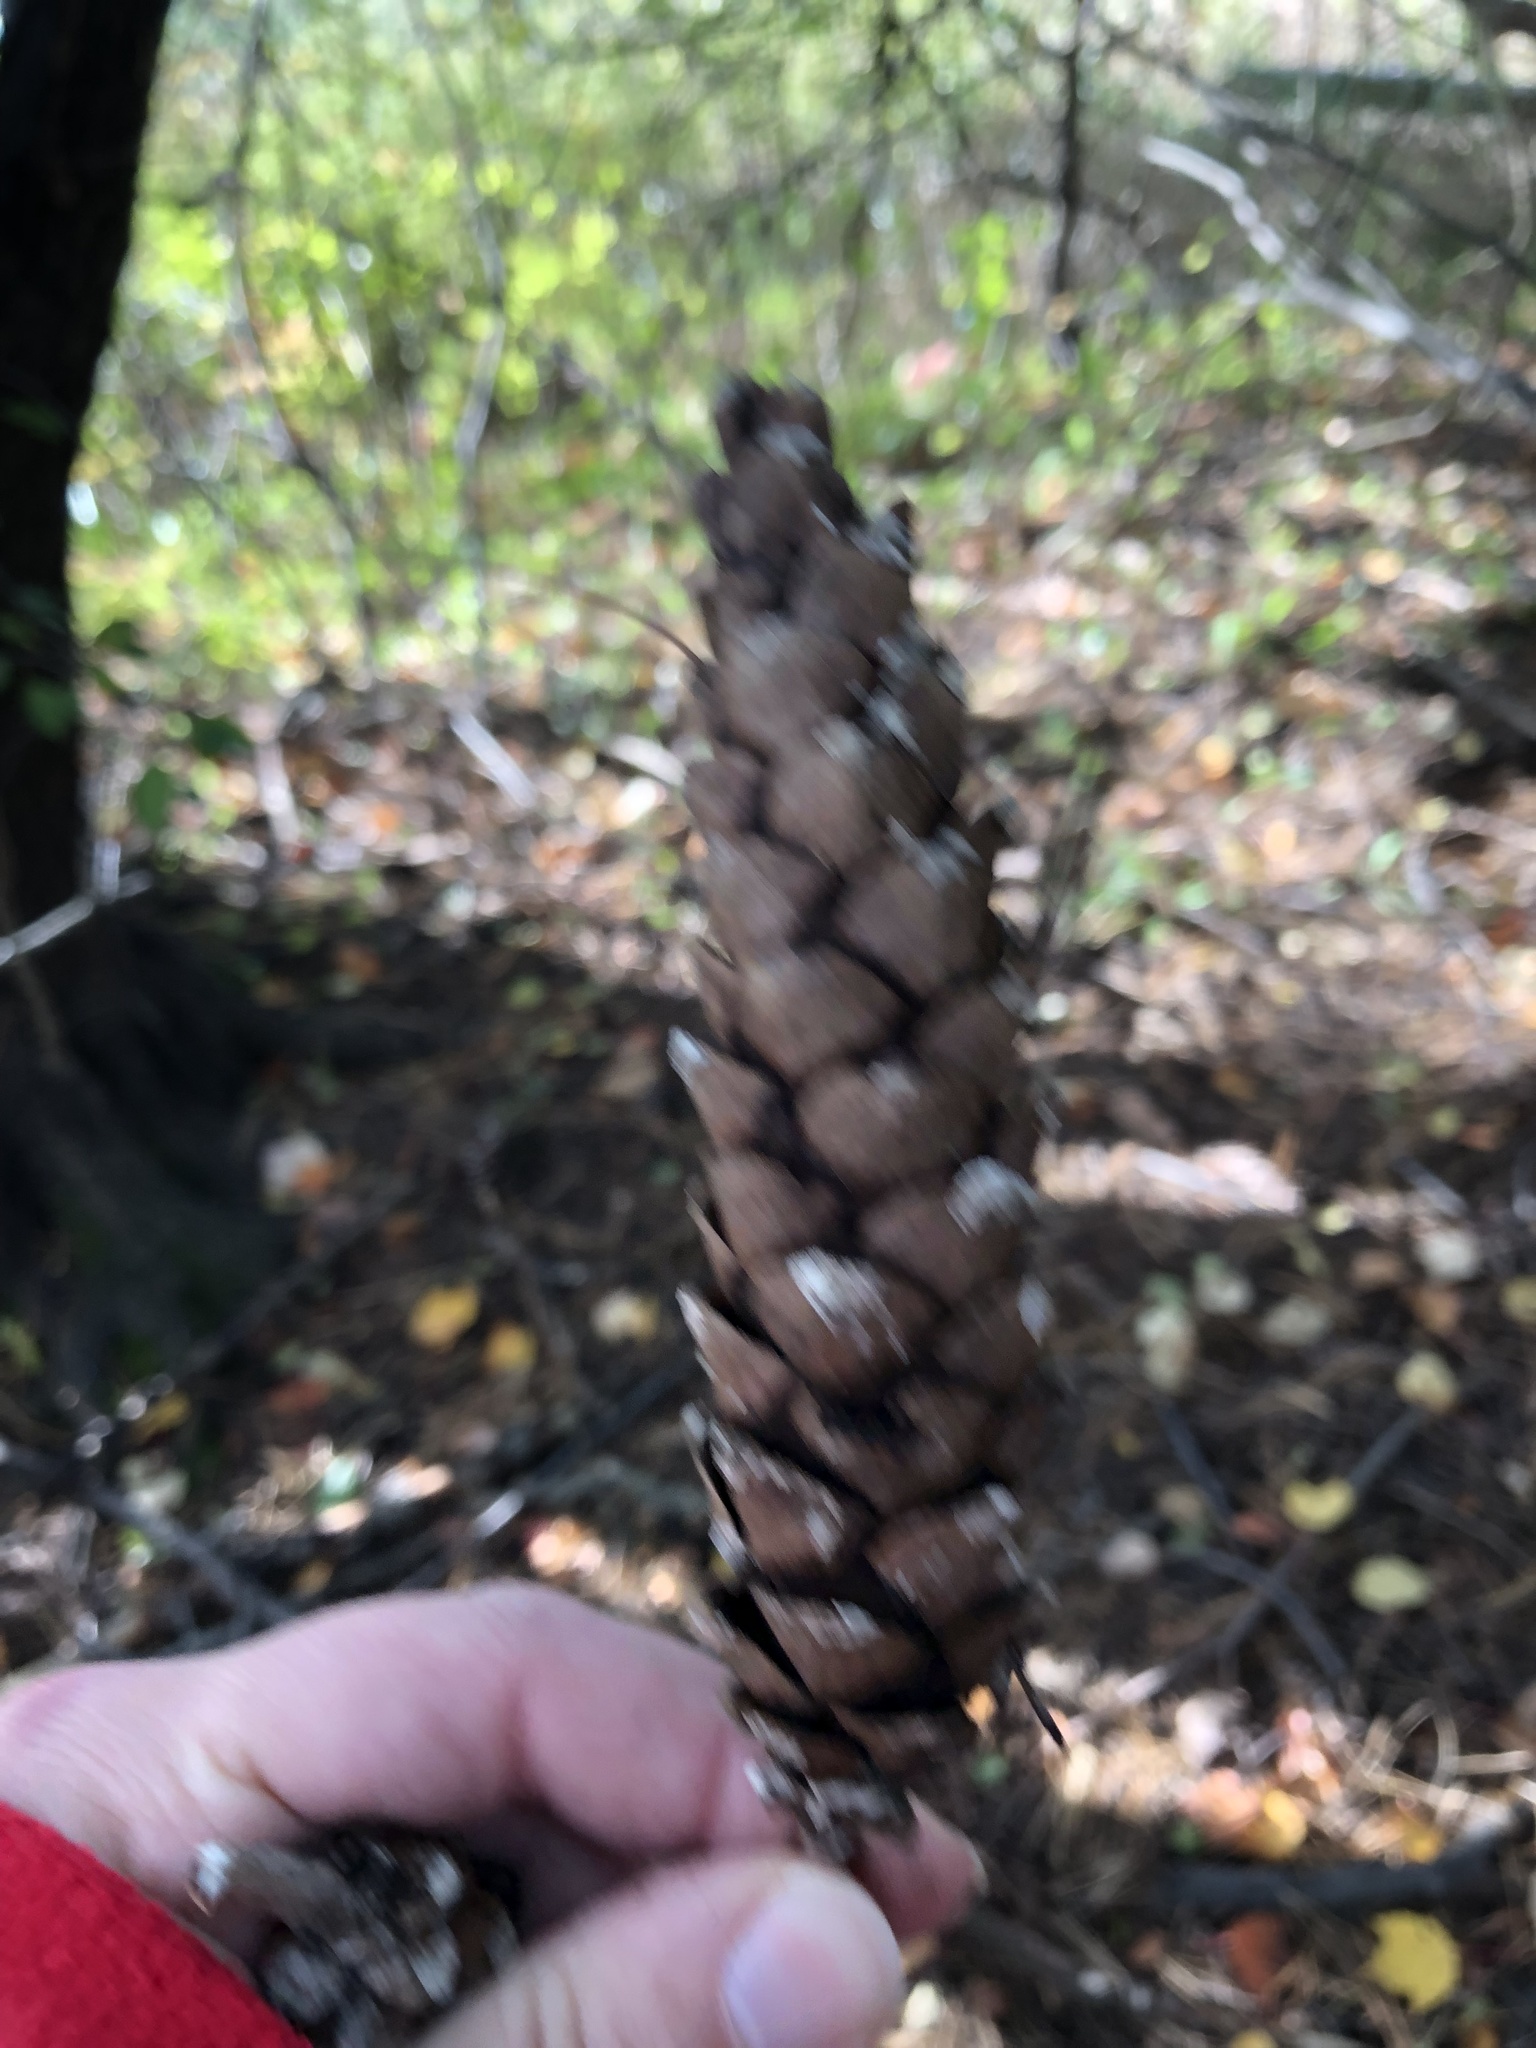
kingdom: Plantae
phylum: Tracheophyta
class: Pinopsida
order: Pinales
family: Pinaceae
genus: Pinus
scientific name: Pinus strobus
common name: Weymouth pine
